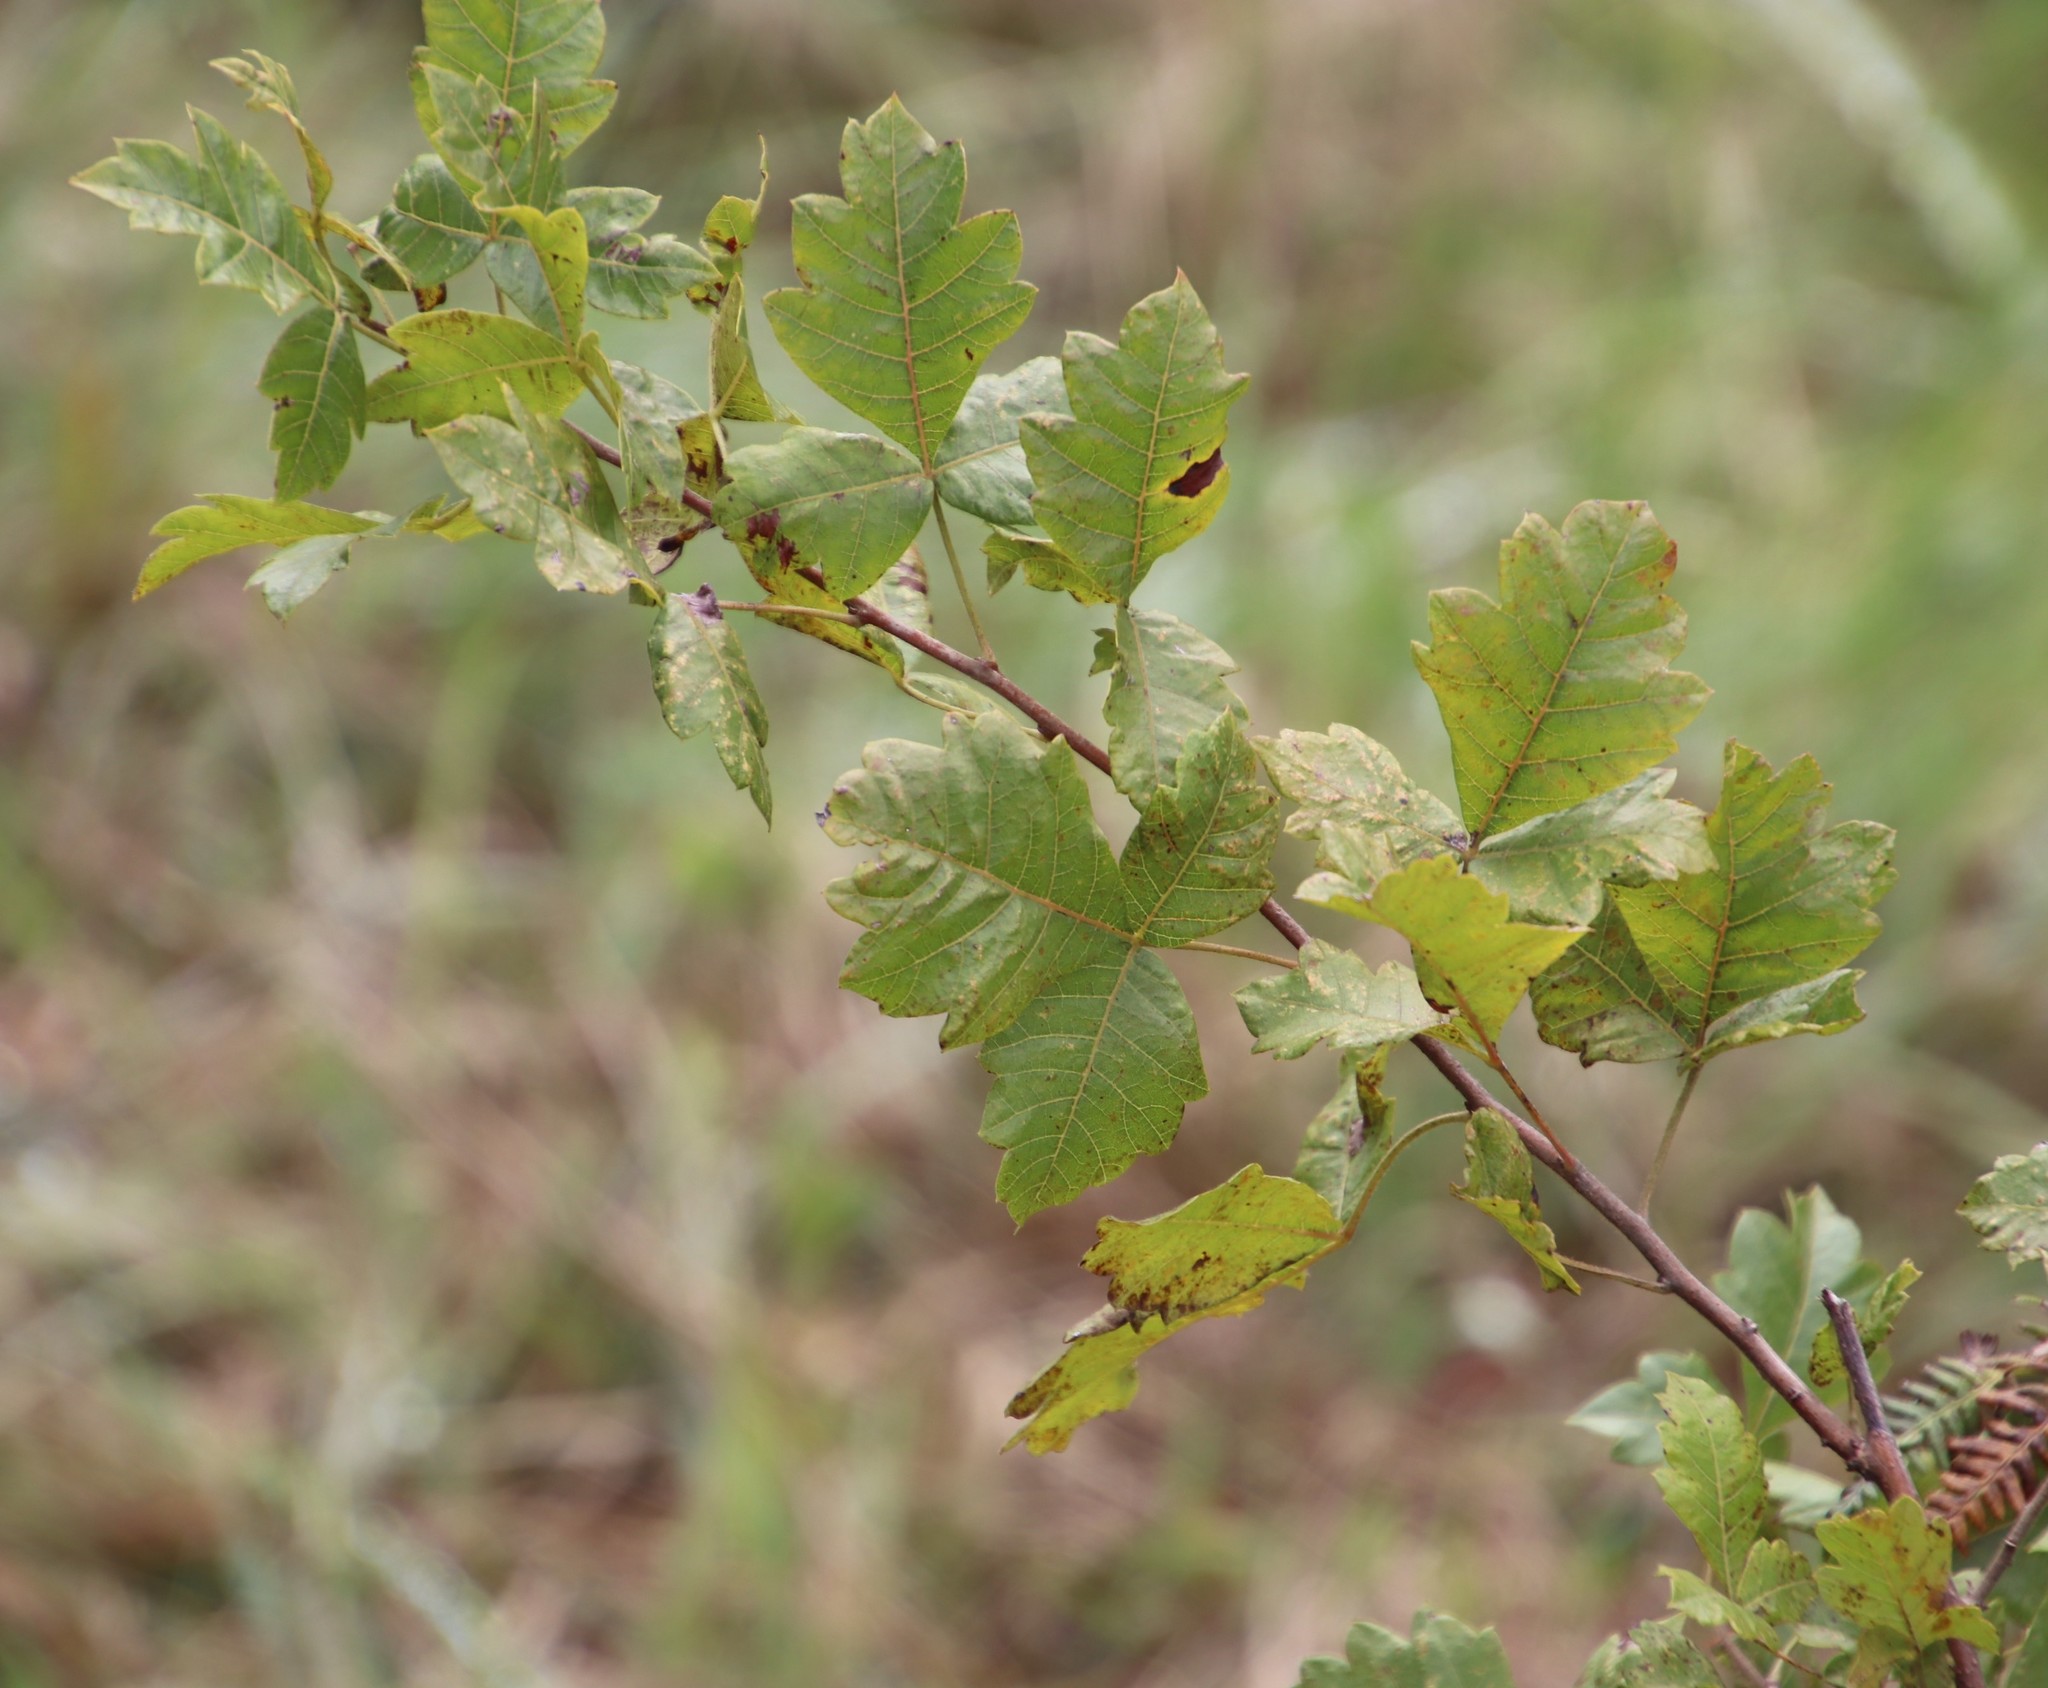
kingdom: Plantae
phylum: Tracheophyta
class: Magnoliopsida
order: Sapindales
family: Anacardiaceae
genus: Searsia
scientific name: Searsia dentata
